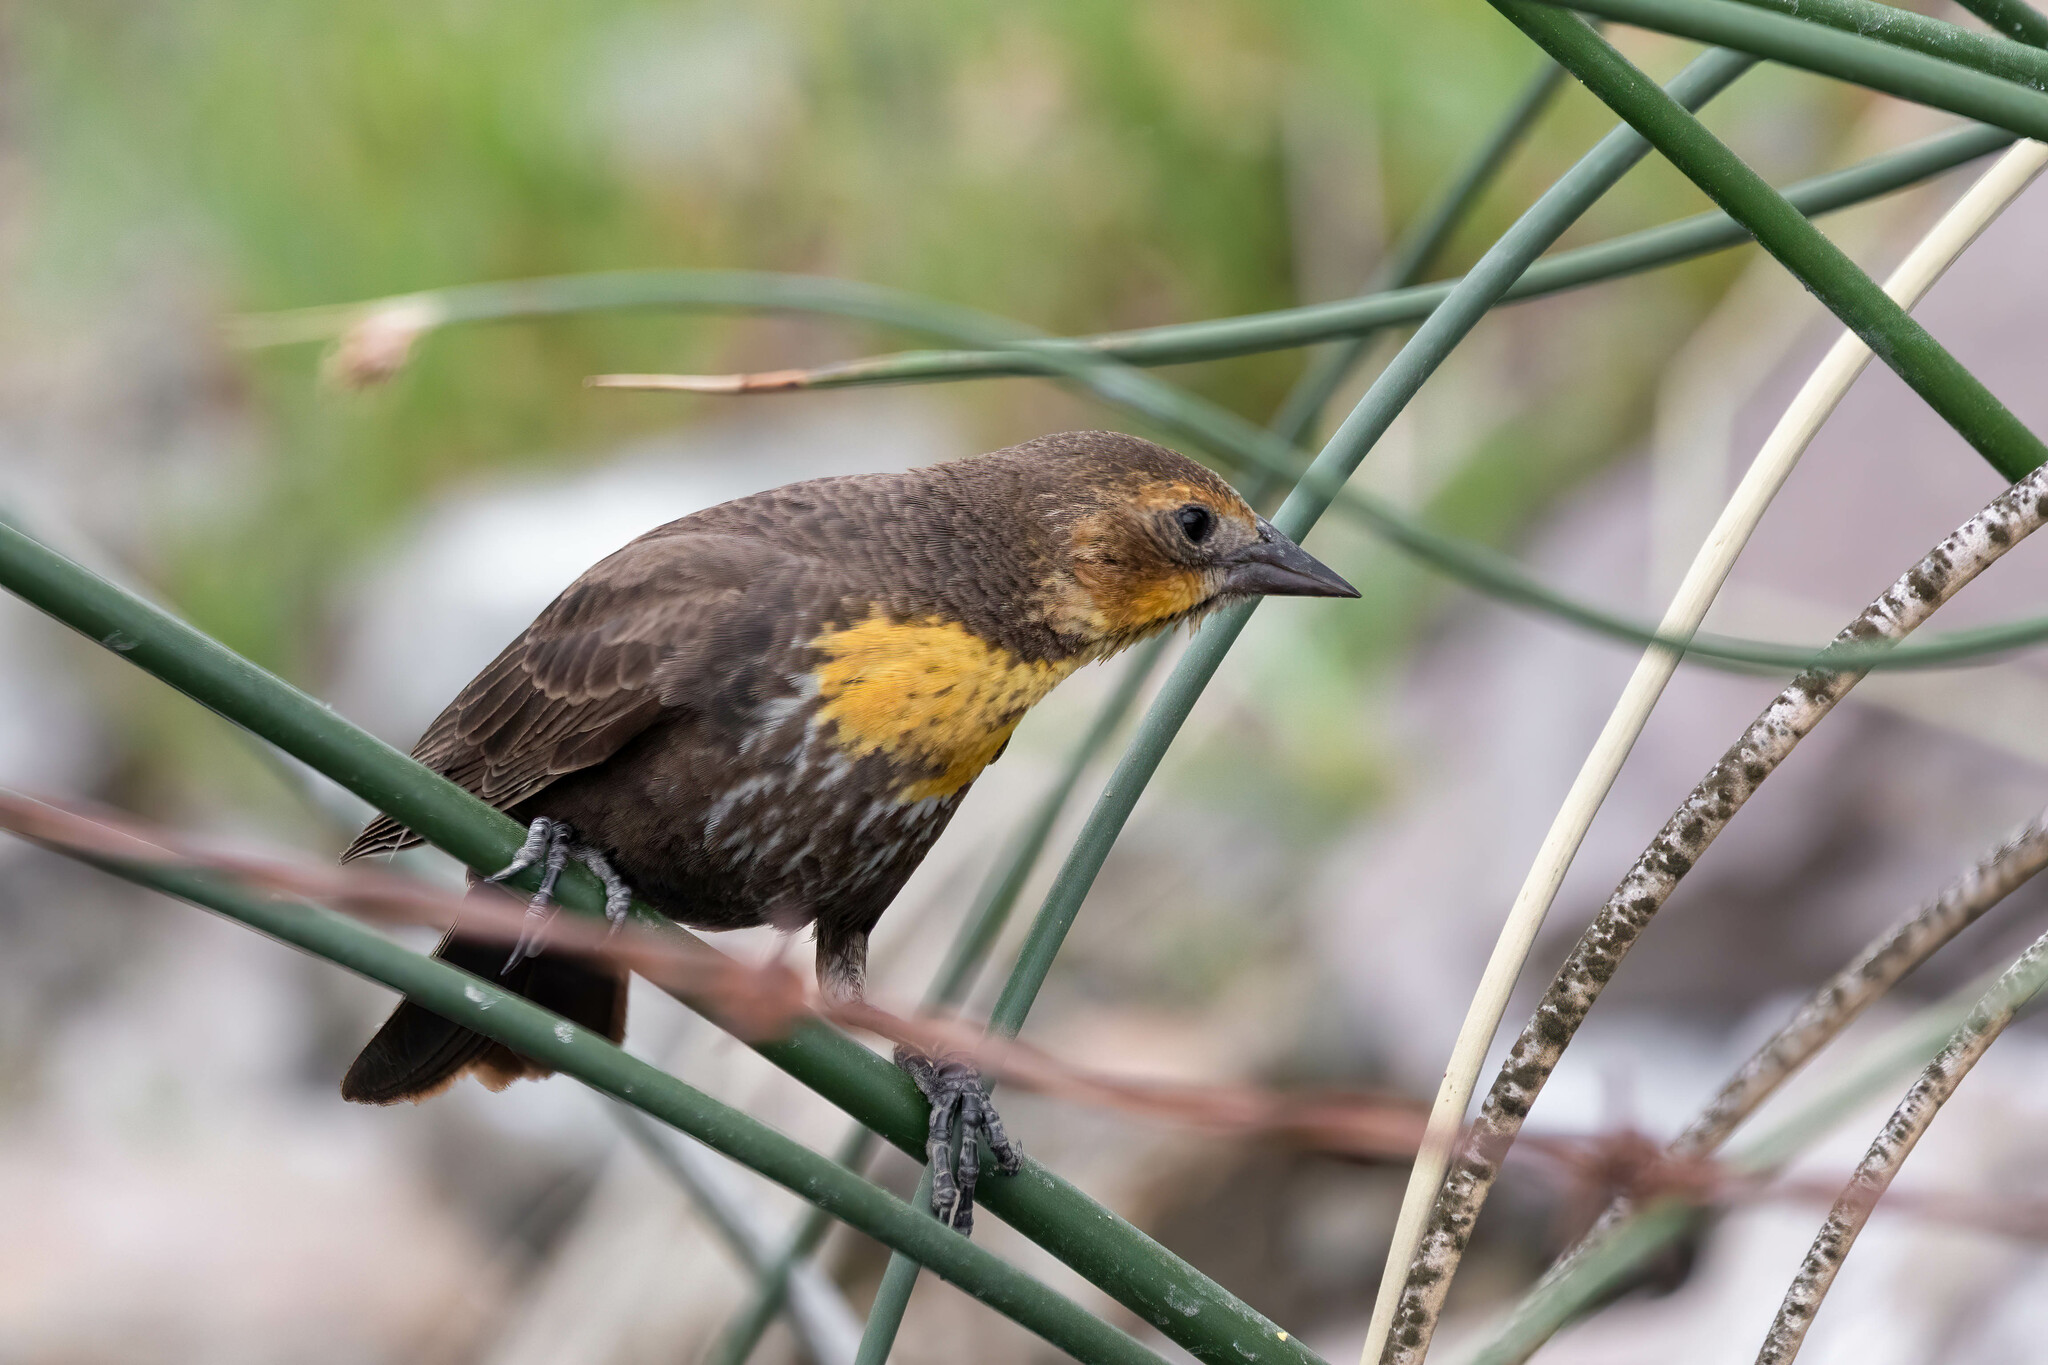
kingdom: Animalia
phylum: Chordata
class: Aves
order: Passeriformes
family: Icteridae
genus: Xanthocephalus
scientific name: Xanthocephalus xanthocephalus
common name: Yellow-headed blackbird
